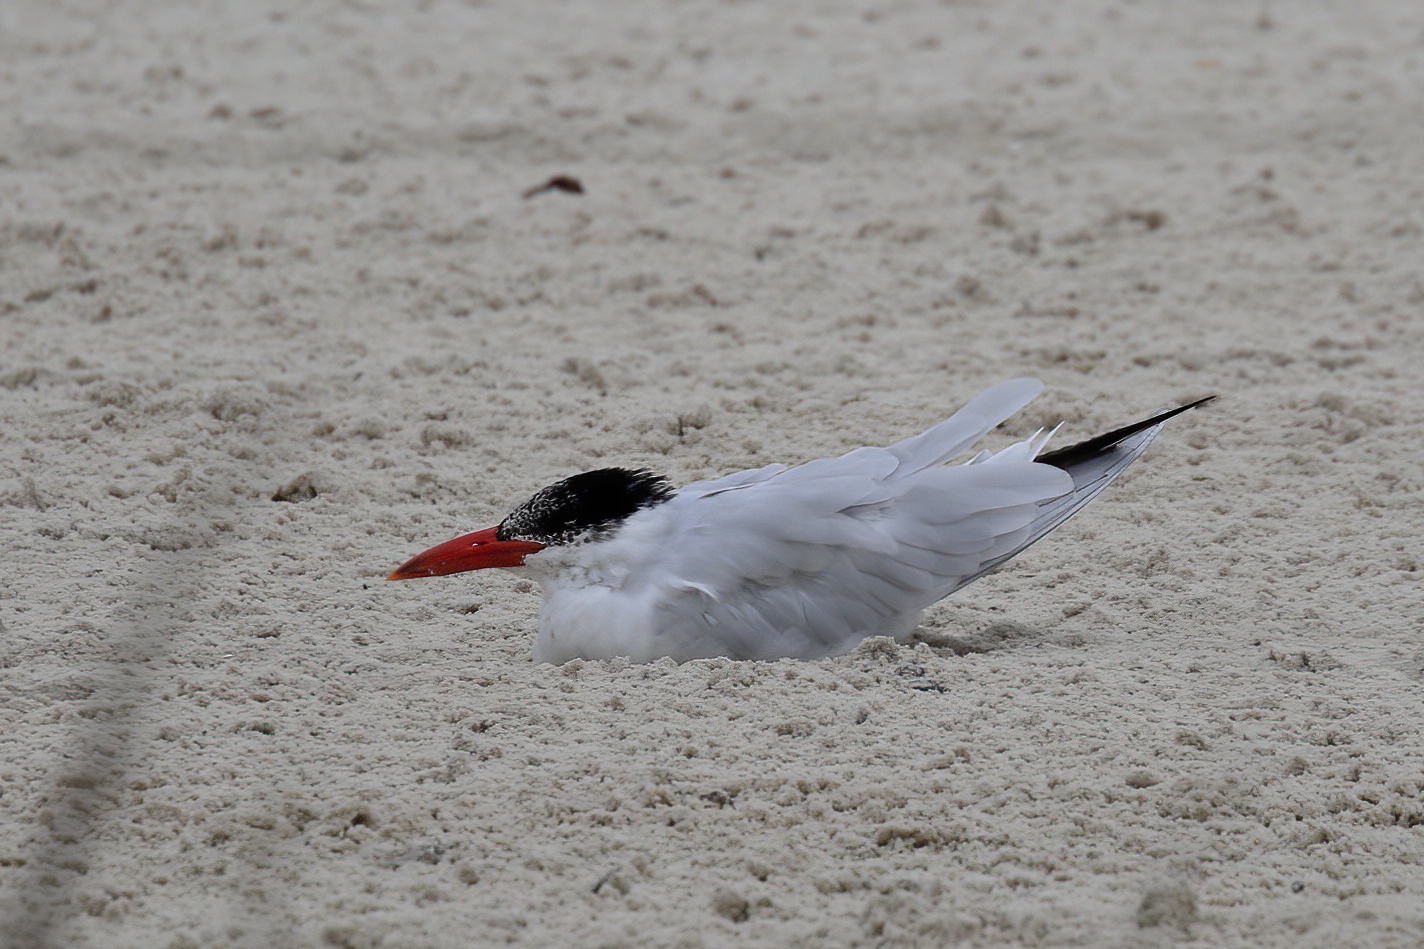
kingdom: Animalia
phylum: Chordata
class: Aves
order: Charadriiformes
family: Laridae
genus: Hydroprogne
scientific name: Hydroprogne caspia
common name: Caspian tern
